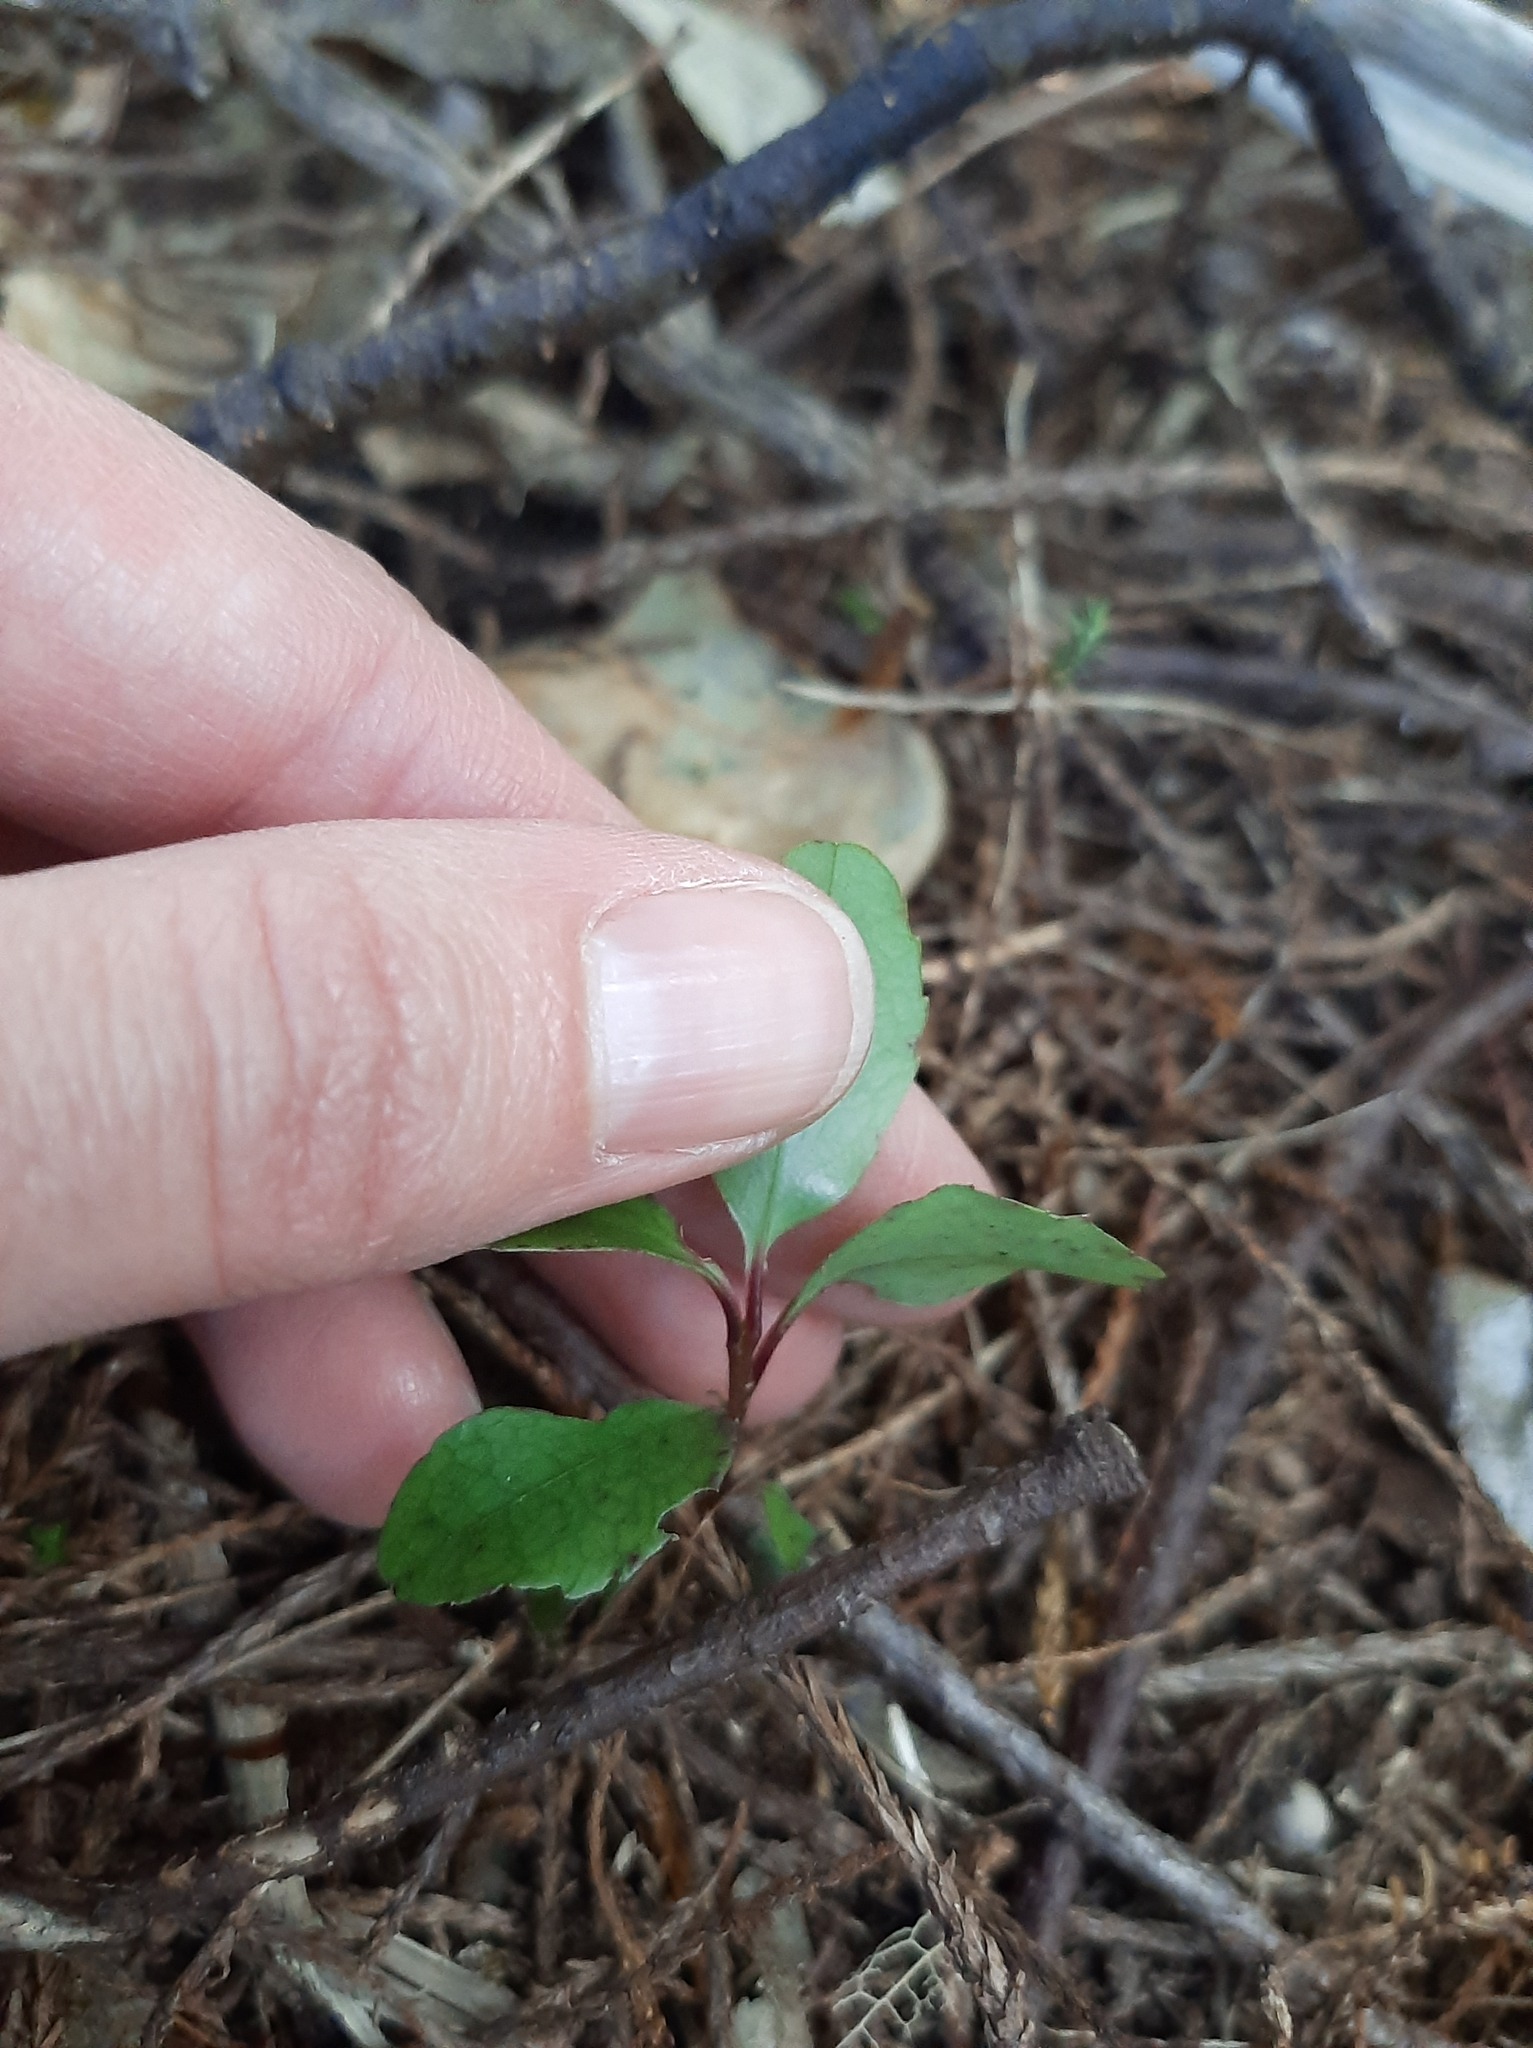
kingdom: Plantae
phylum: Tracheophyta
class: Magnoliopsida
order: Ericales
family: Primulaceae
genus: Myrsine
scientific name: Myrsine australis
